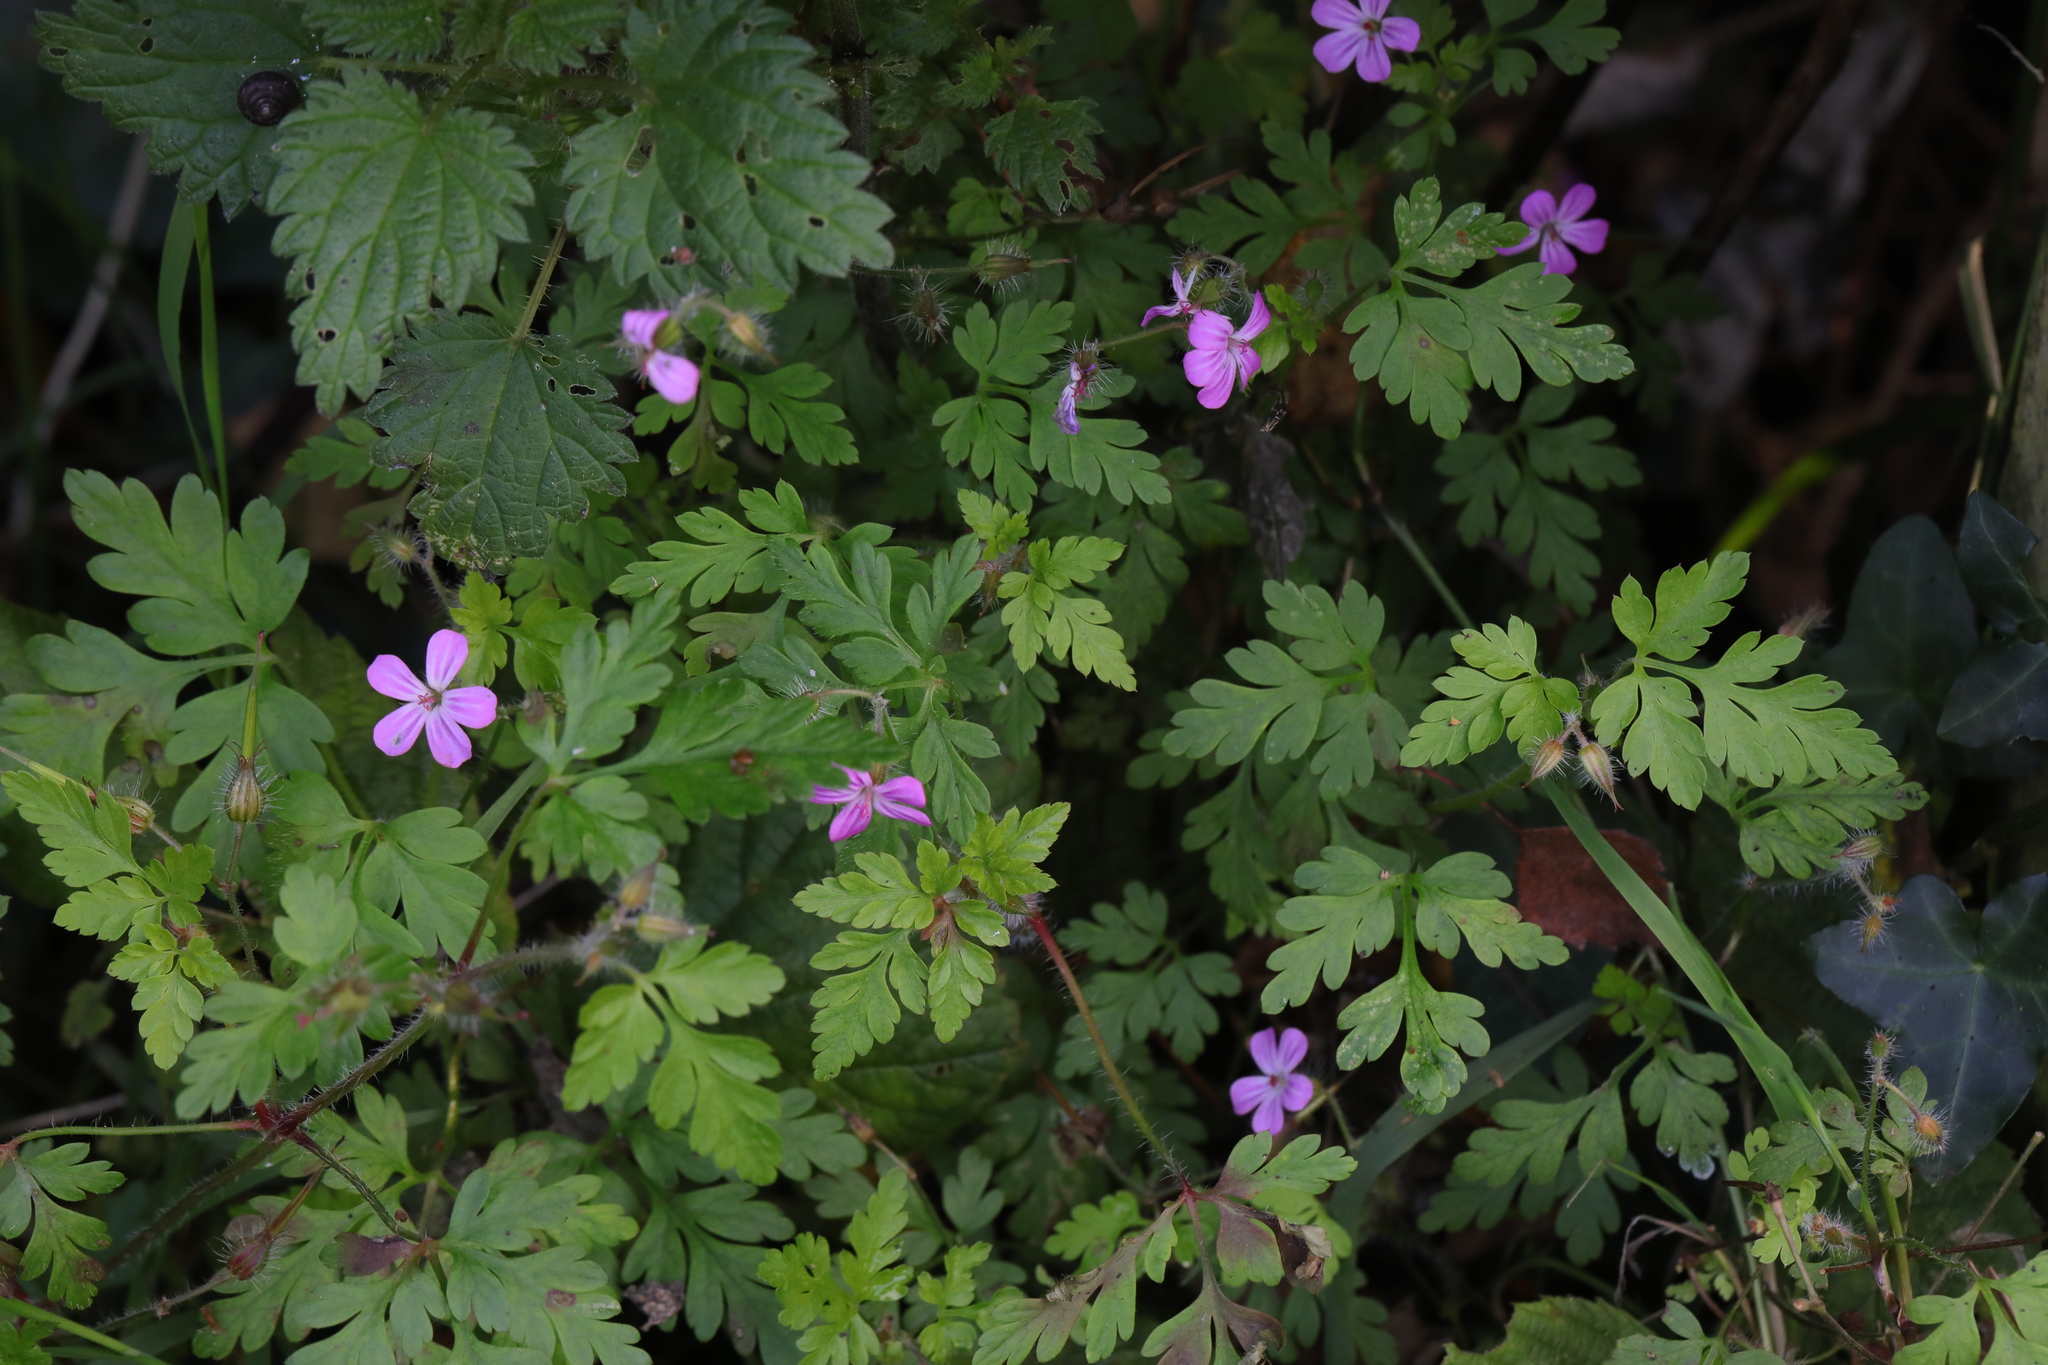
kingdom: Plantae
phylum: Tracheophyta
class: Magnoliopsida
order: Geraniales
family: Geraniaceae
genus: Geranium
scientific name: Geranium robertianum
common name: Herb-robert
